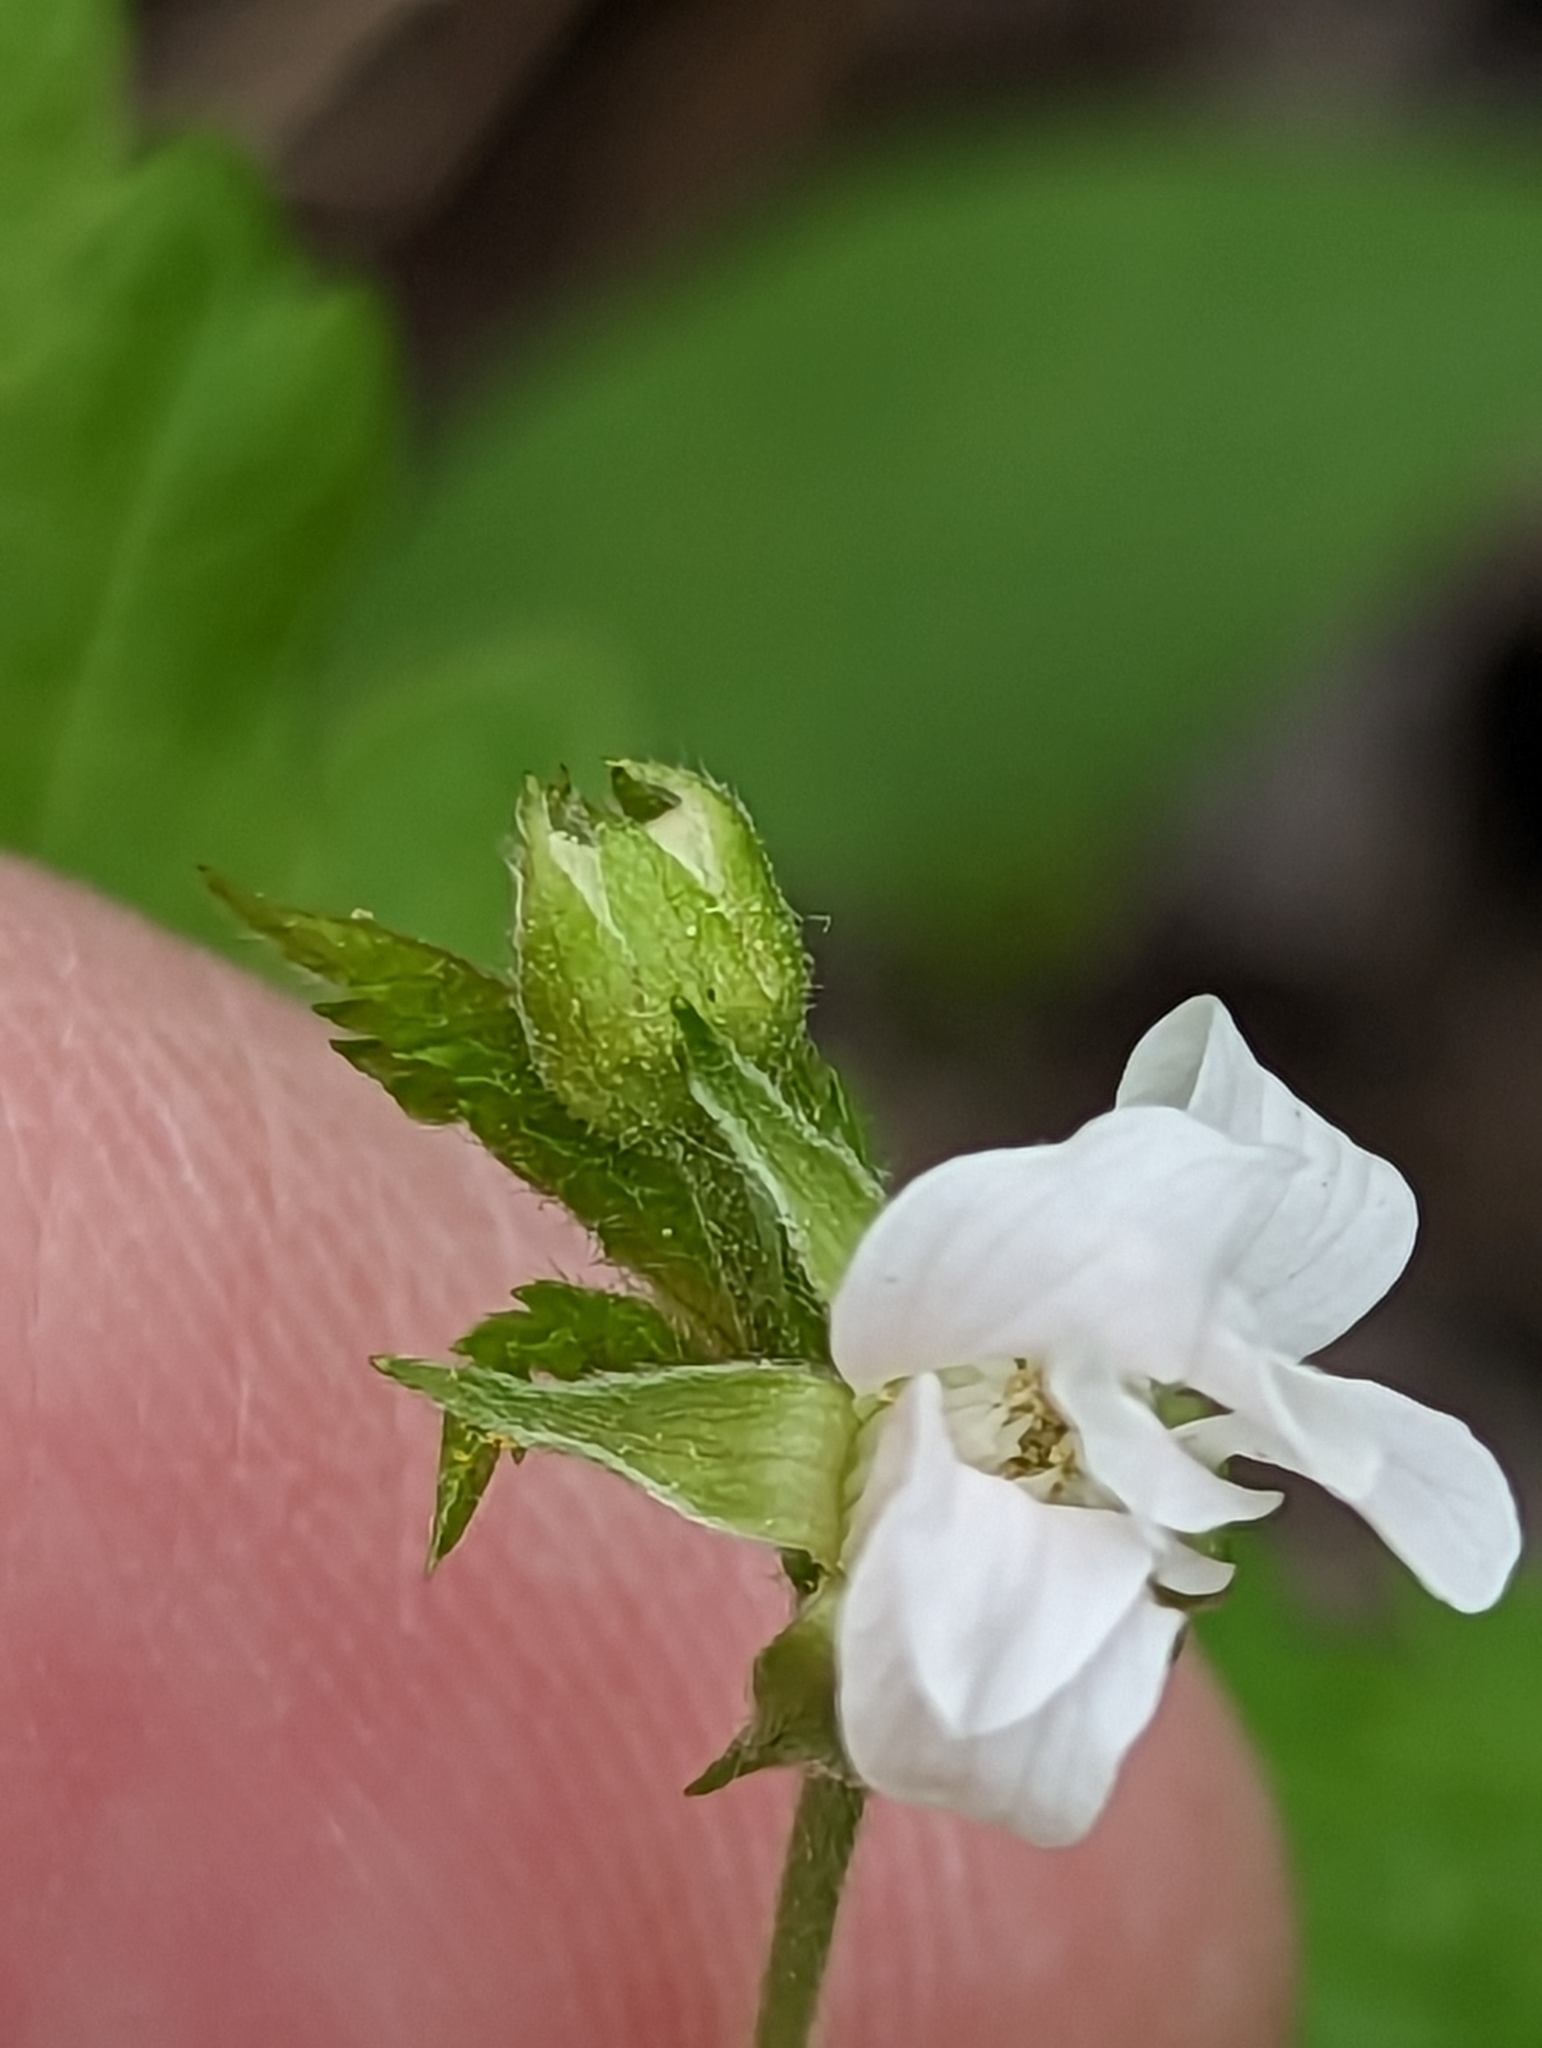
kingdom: Plantae
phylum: Tracheophyta
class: Magnoliopsida
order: Rosales
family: Rosaceae
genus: Rubus
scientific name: Rubus pubescens
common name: Dwarf raspberry
